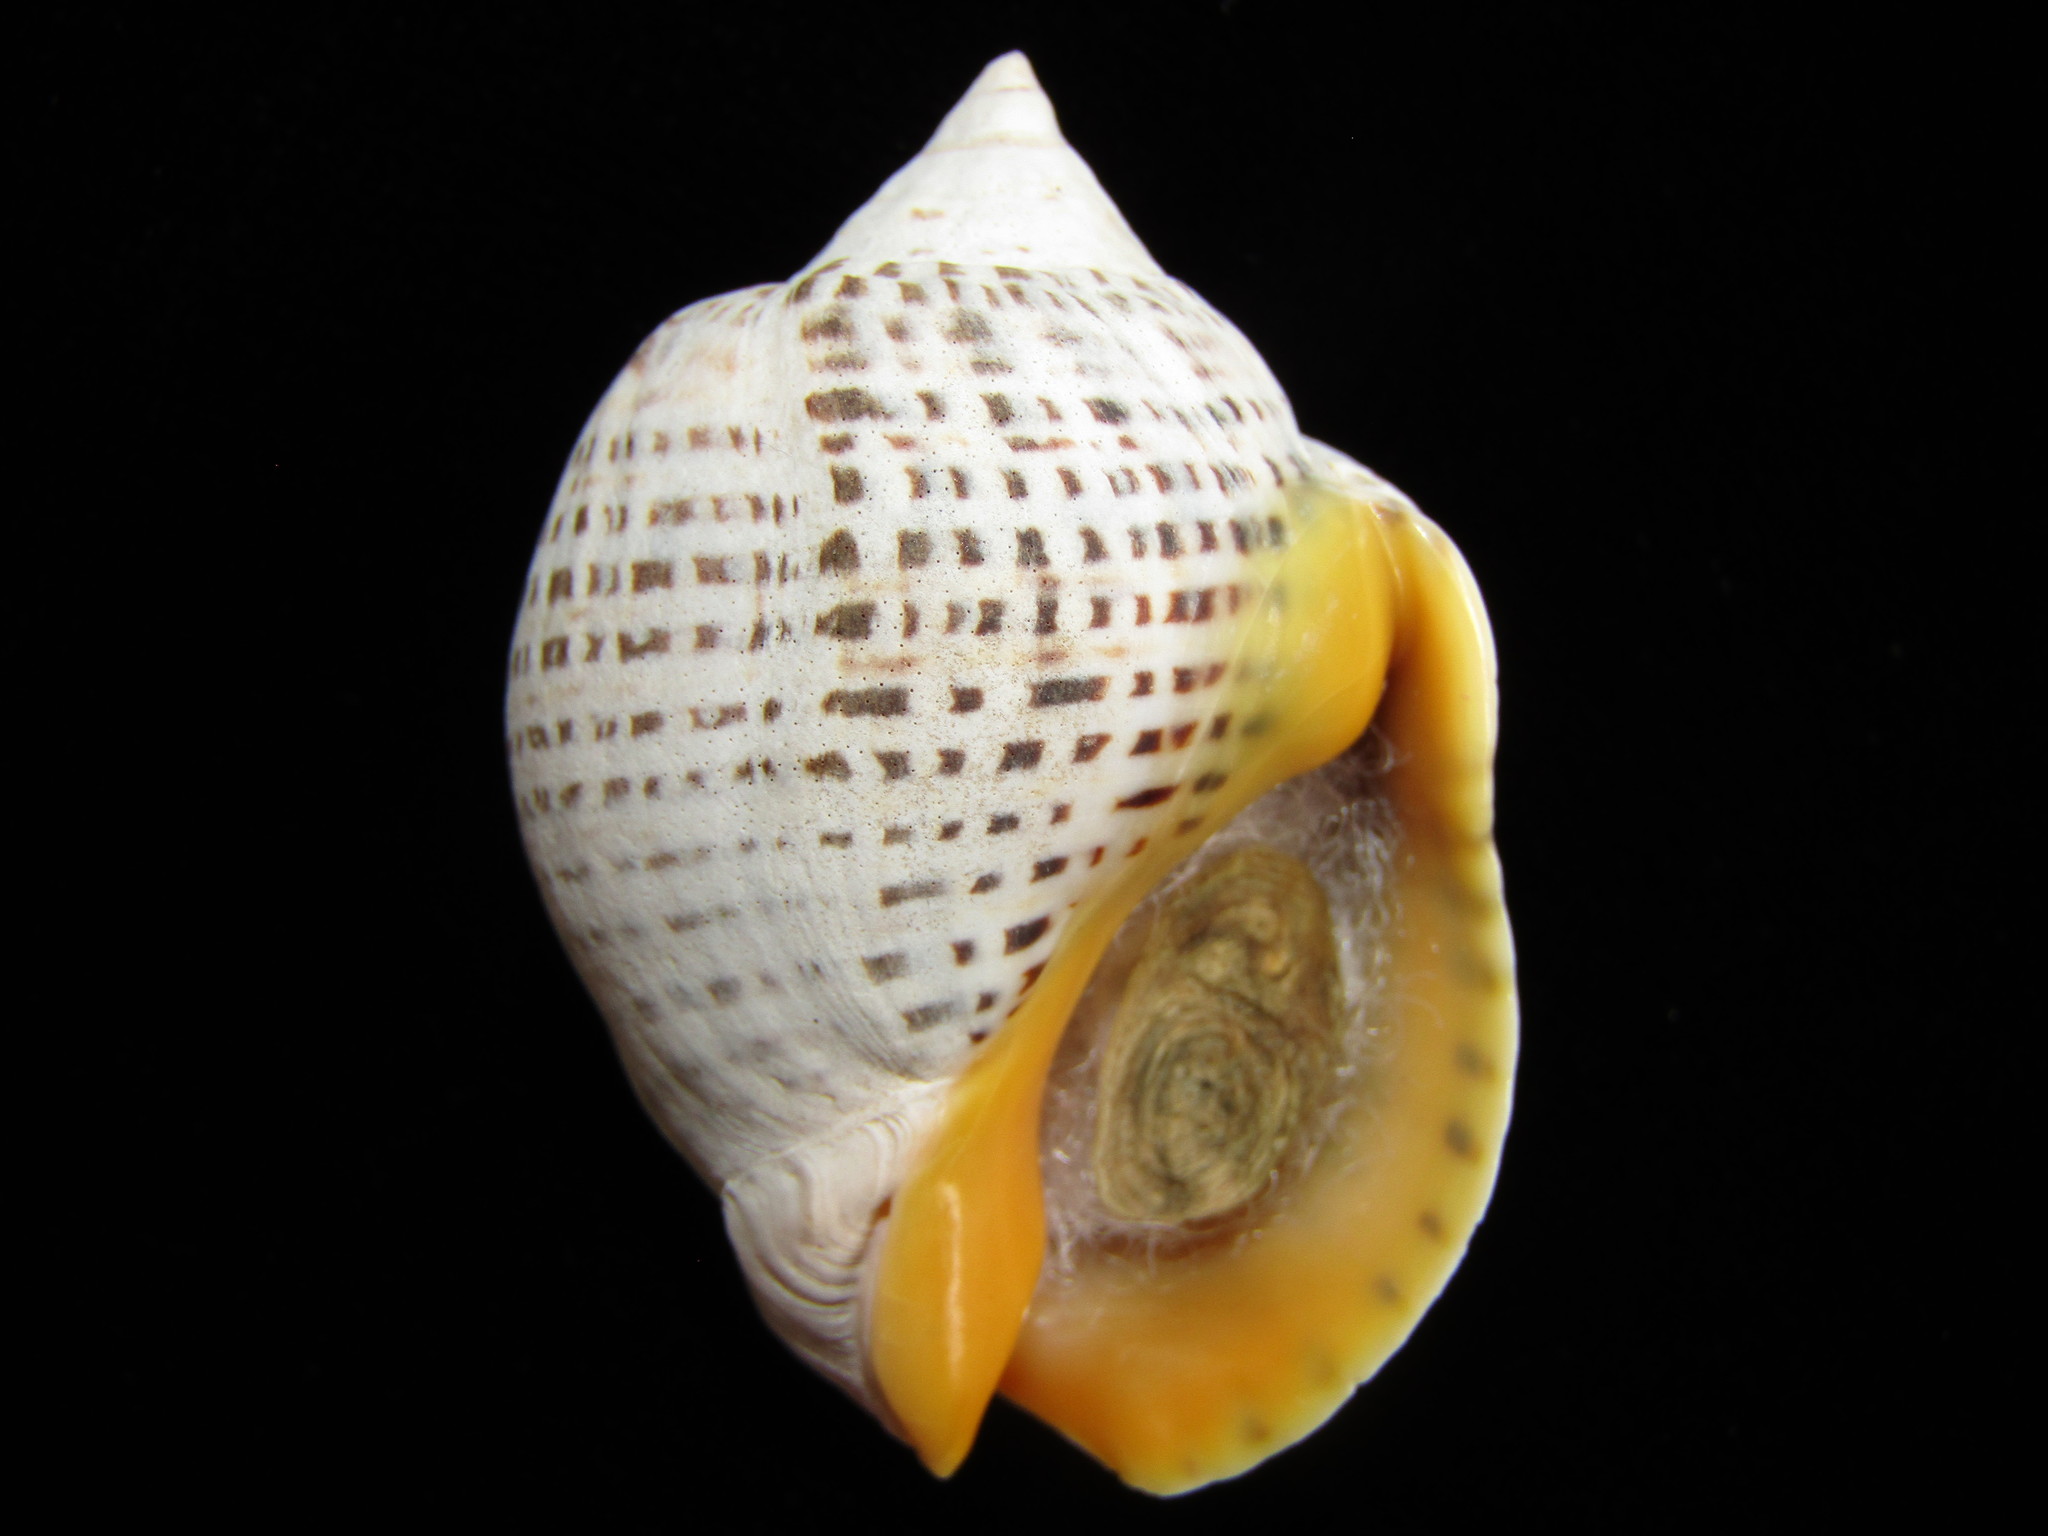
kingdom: Animalia
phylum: Mollusca
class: Gastropoda
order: Neogastropoda
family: Cominellidae
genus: Cominella
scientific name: Cominella adspersa
